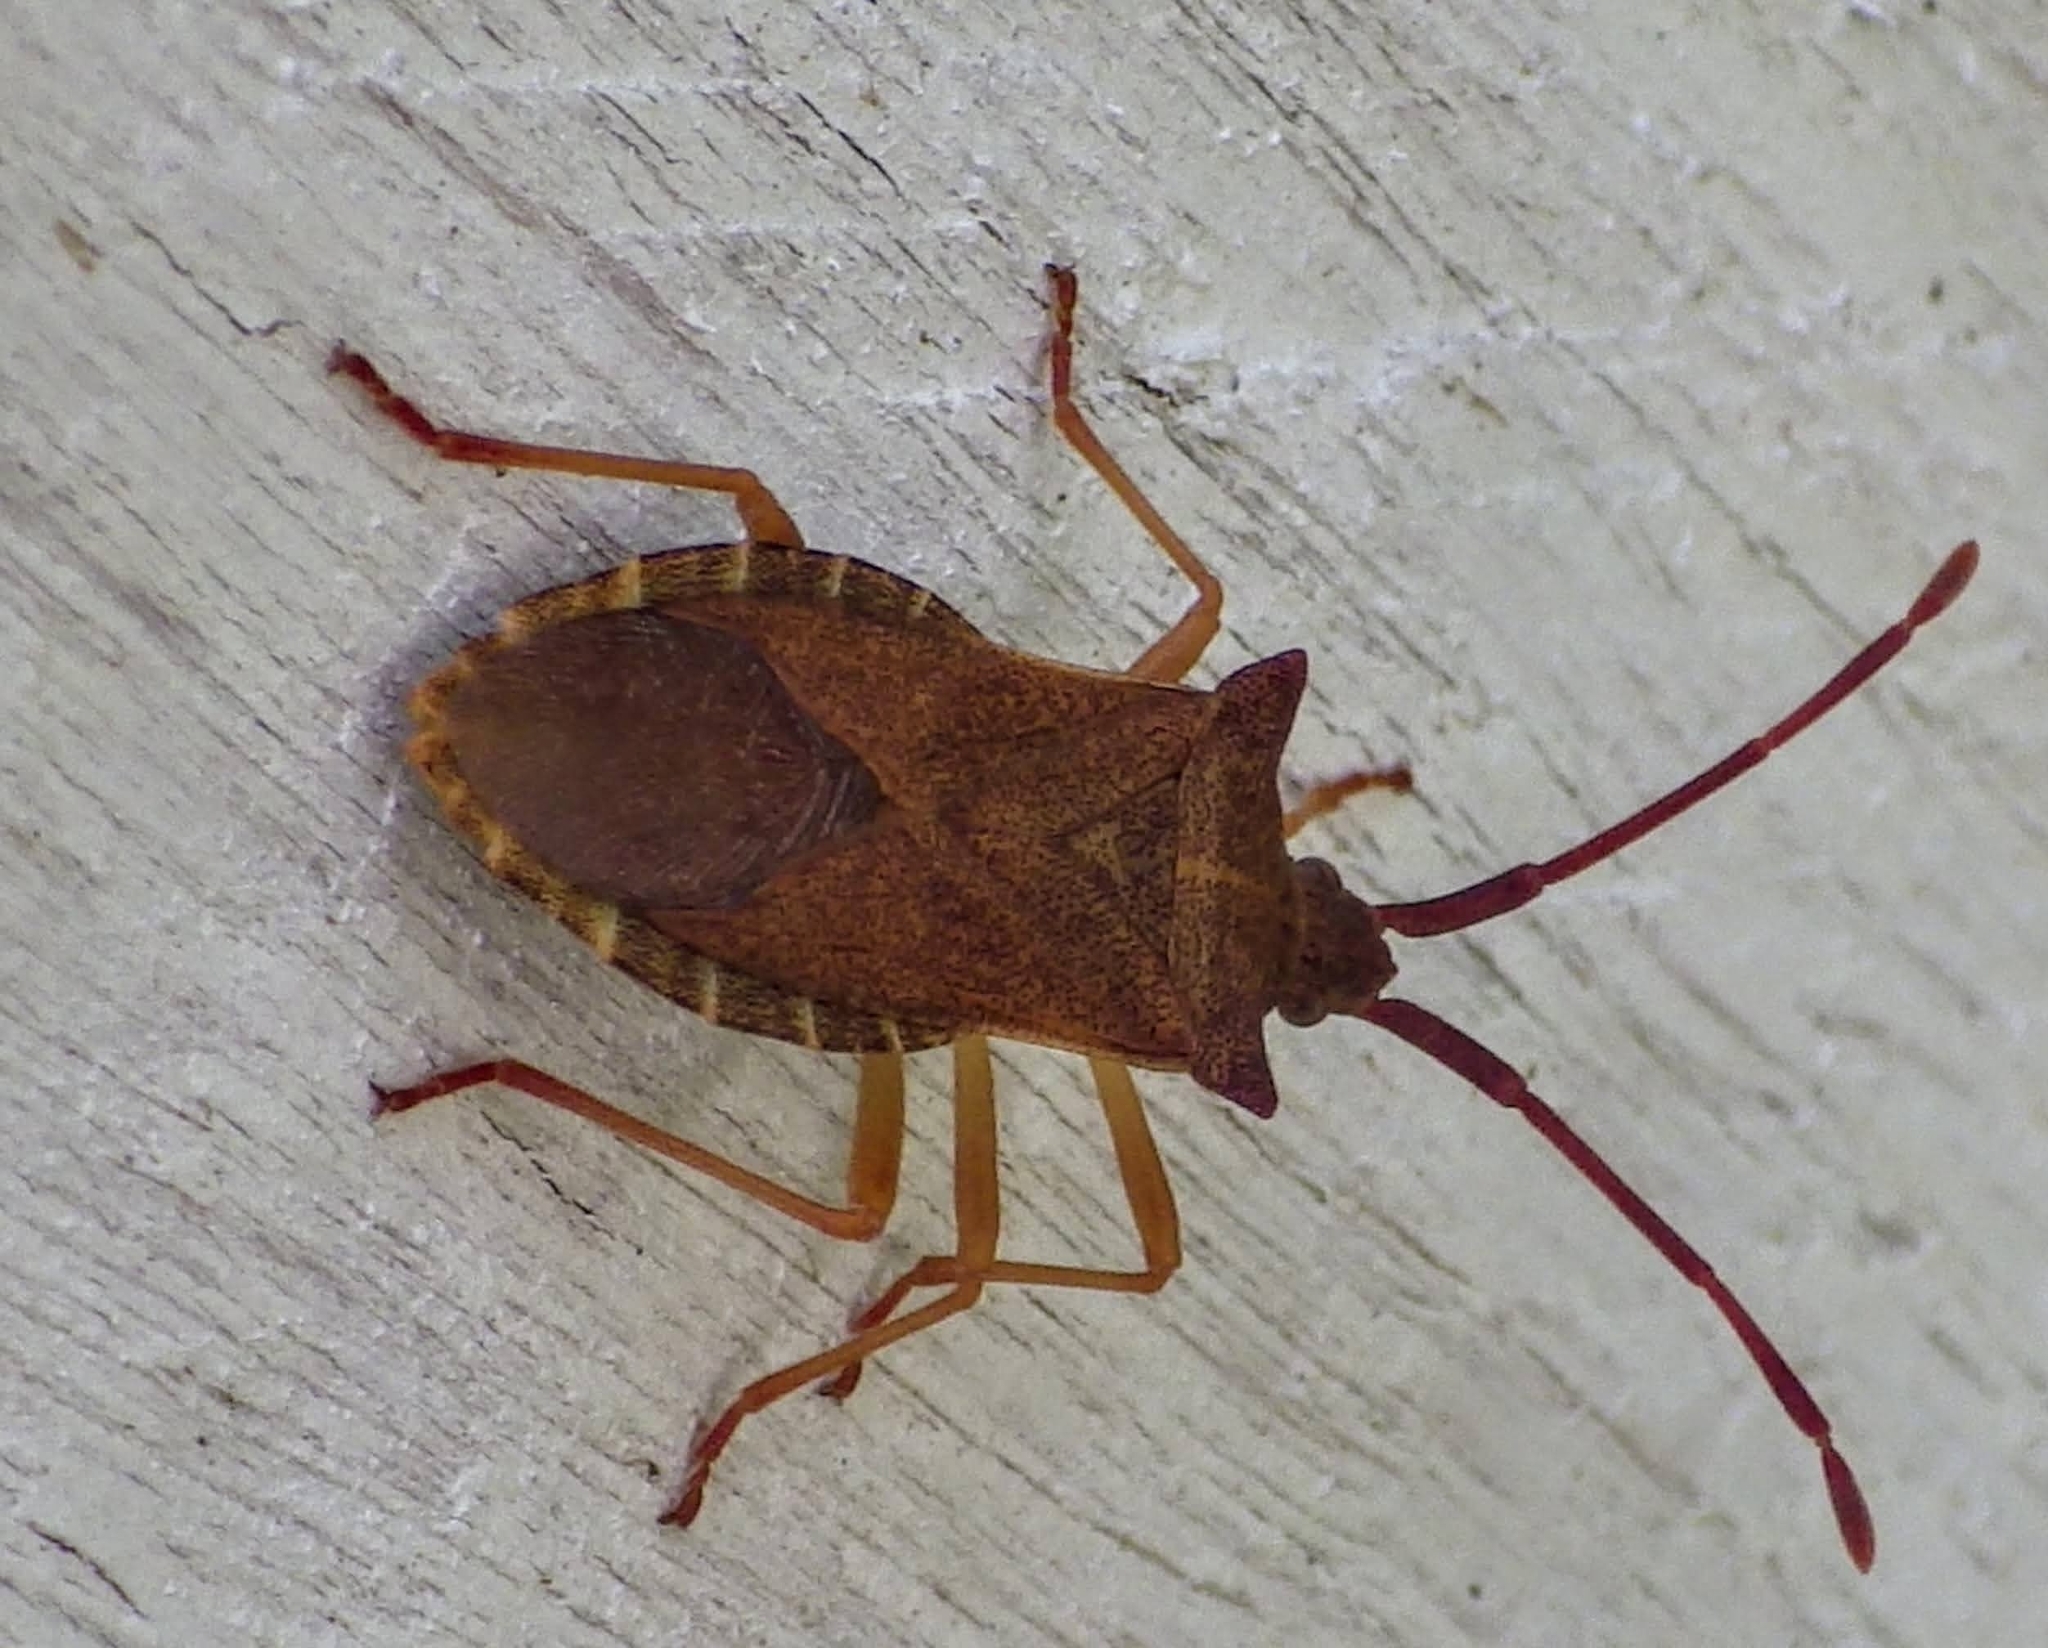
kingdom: Animalia
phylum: Arthropoda
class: Insecta
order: Hemiptera
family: Coreidae
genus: Gonocerus
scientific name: Gonocerus acuteangulatus
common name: Box bug
